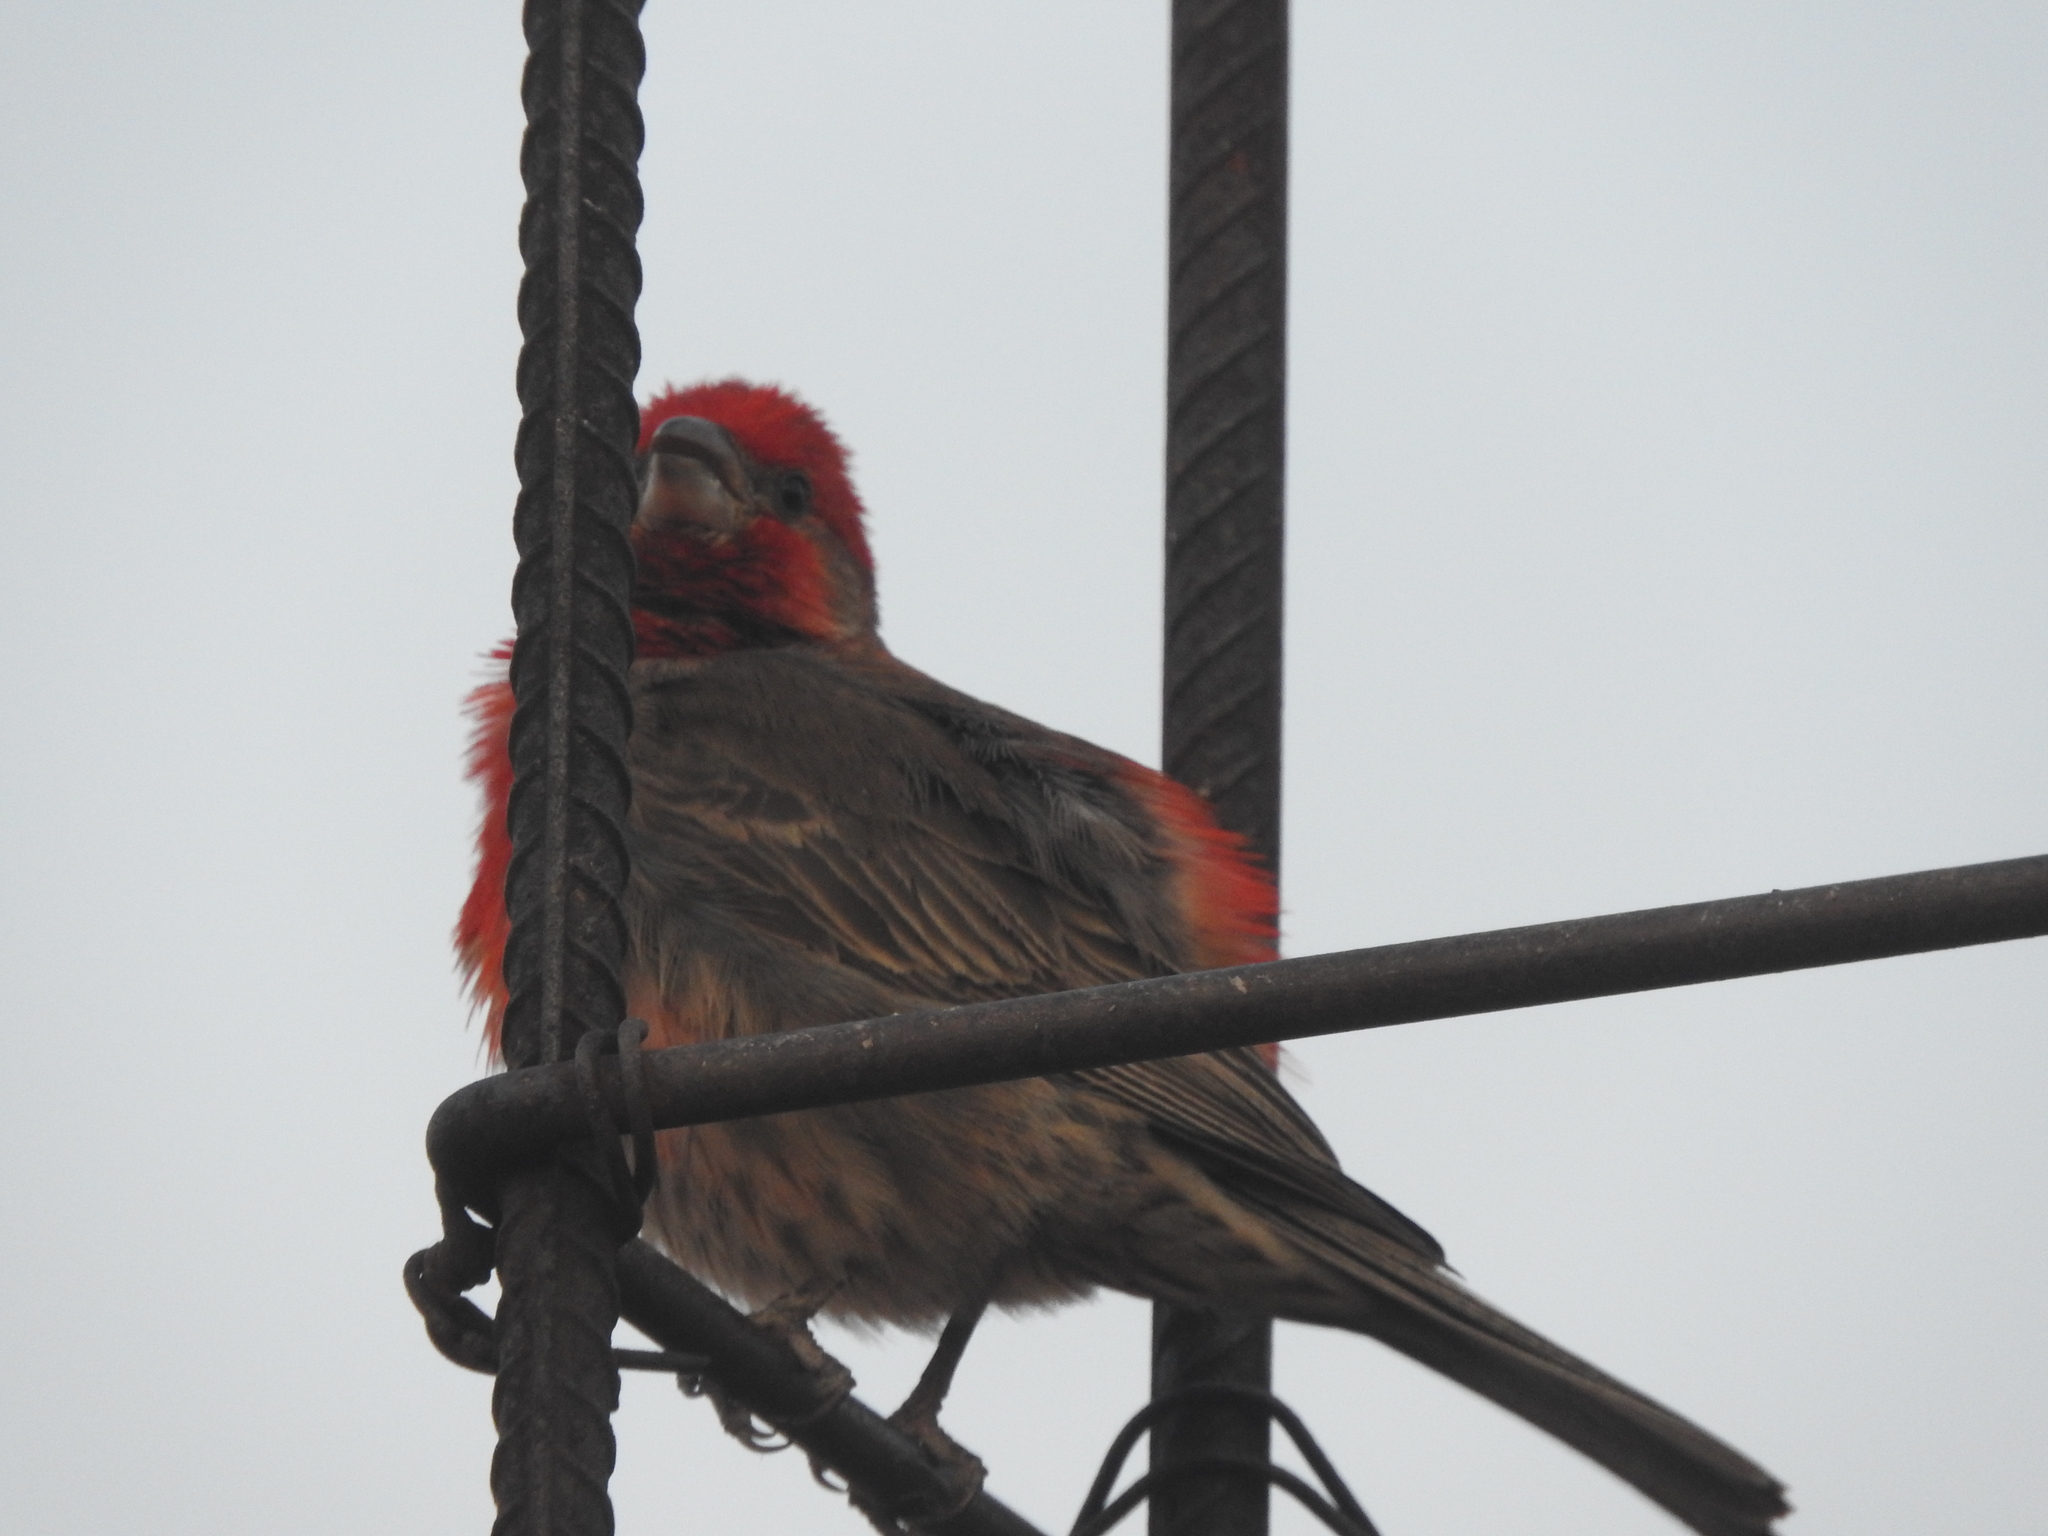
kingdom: Animalia
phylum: Chordata
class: Aves
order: Passeriformes
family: Fringillidae
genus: Haemorhous
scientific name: Haemorhous mexicanus
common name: House finch
